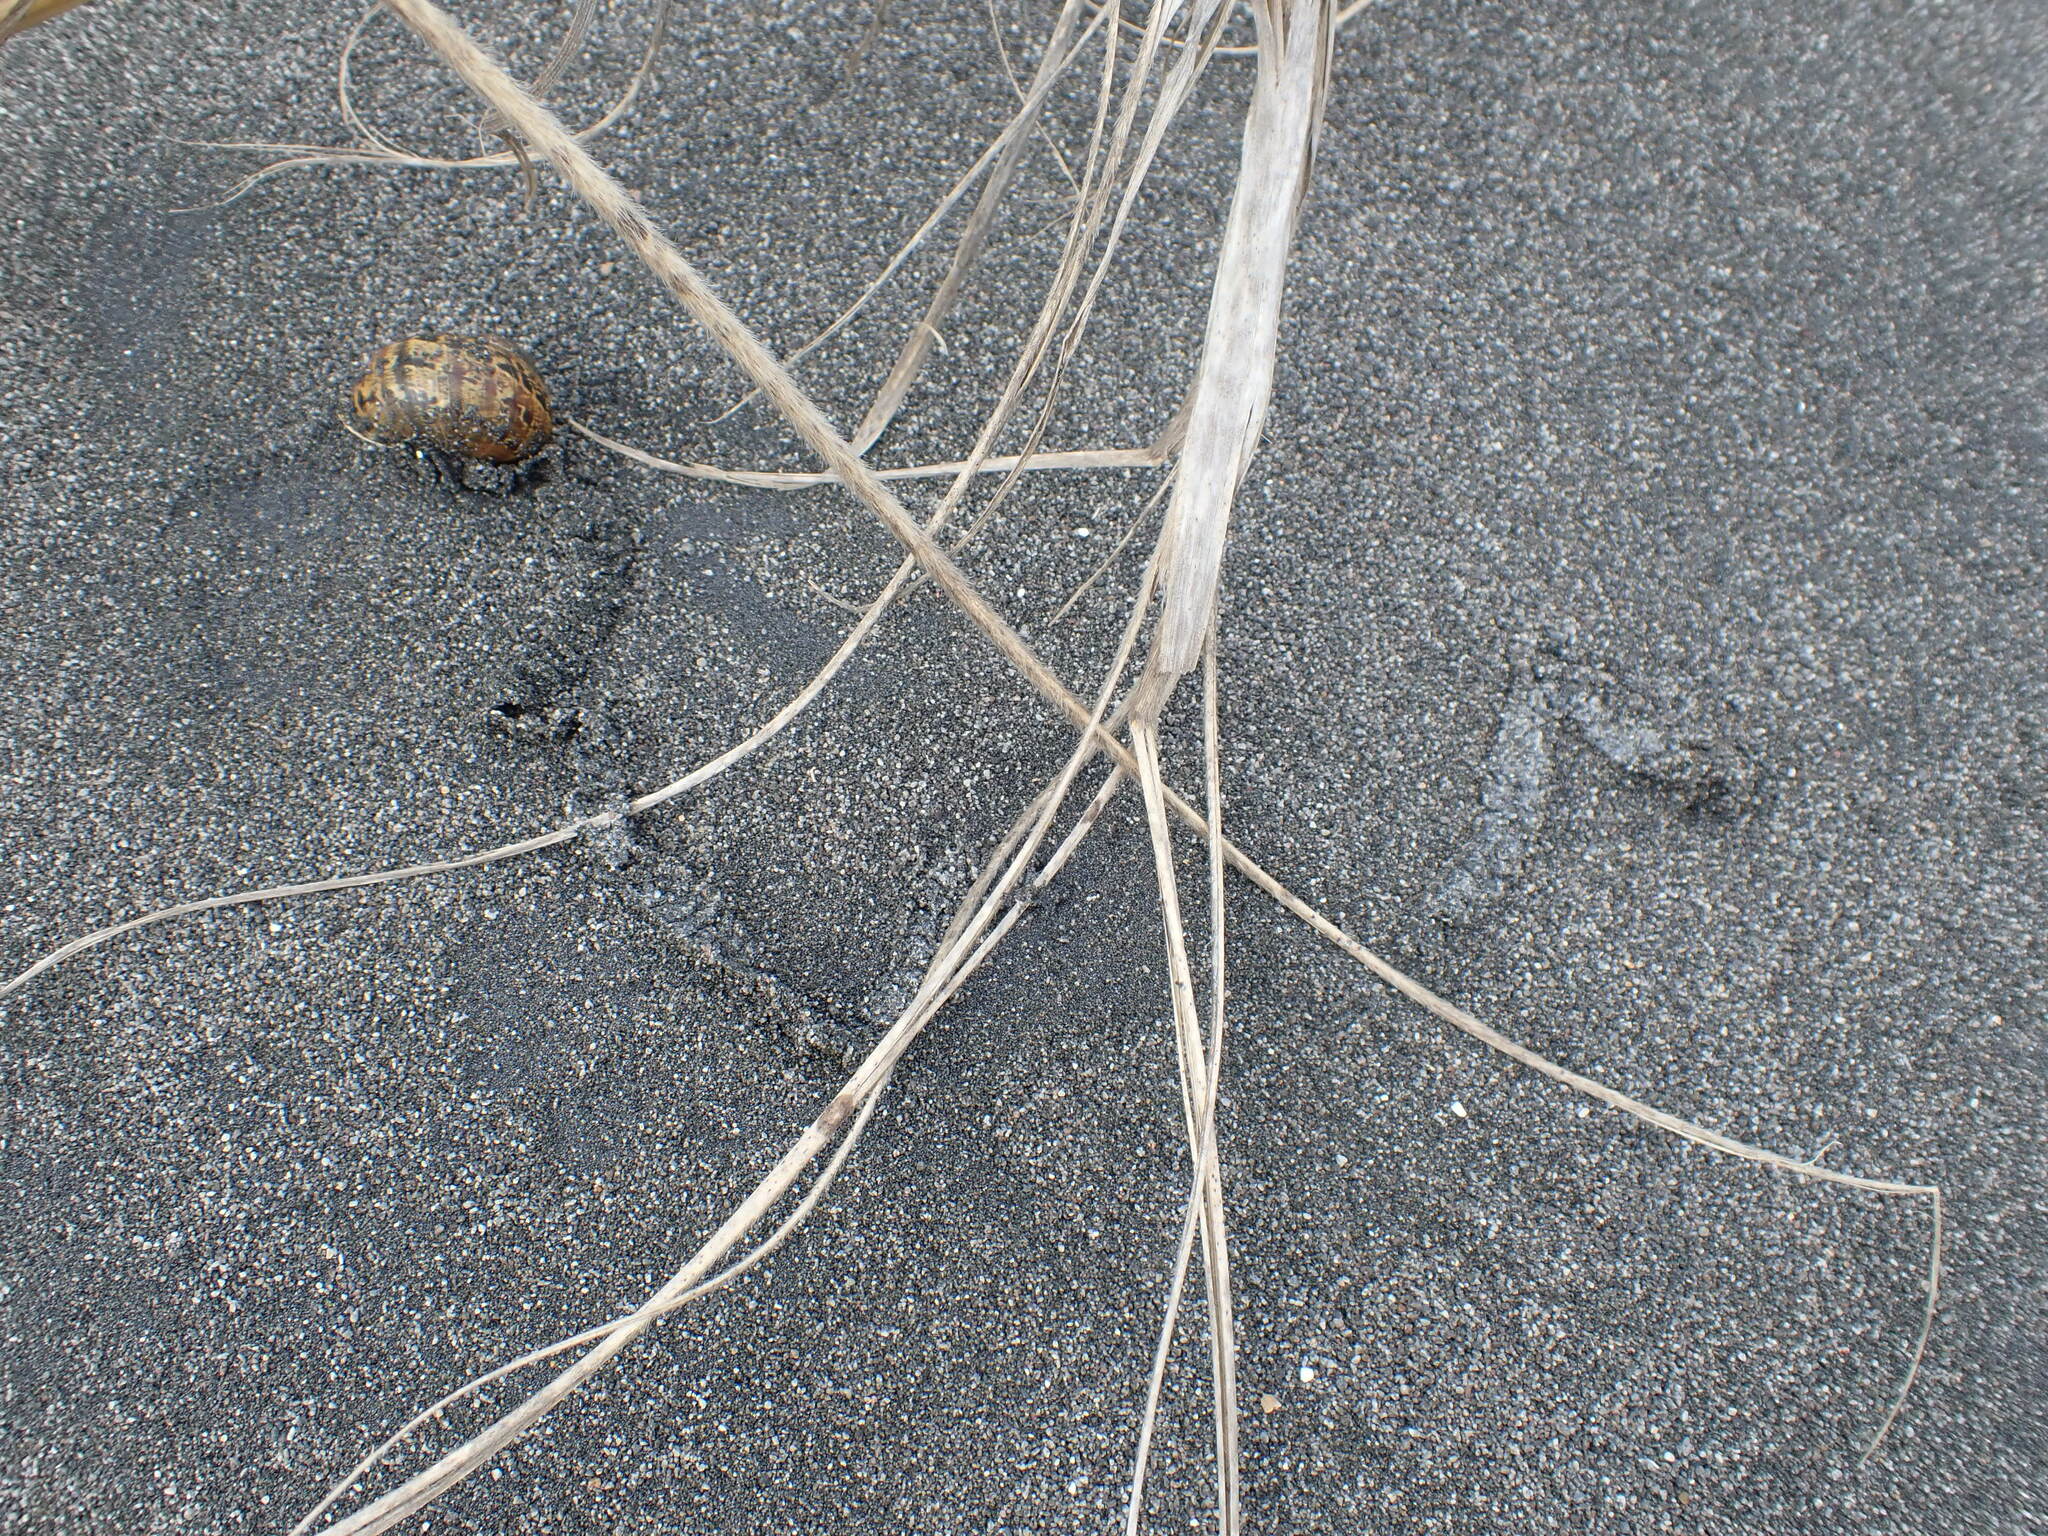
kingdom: Animalia
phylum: Mollusca
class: Gastropoda
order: Stylommatophora
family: Helicidae
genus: Cornu
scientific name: Cornu aspersum
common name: Brown garden snail
